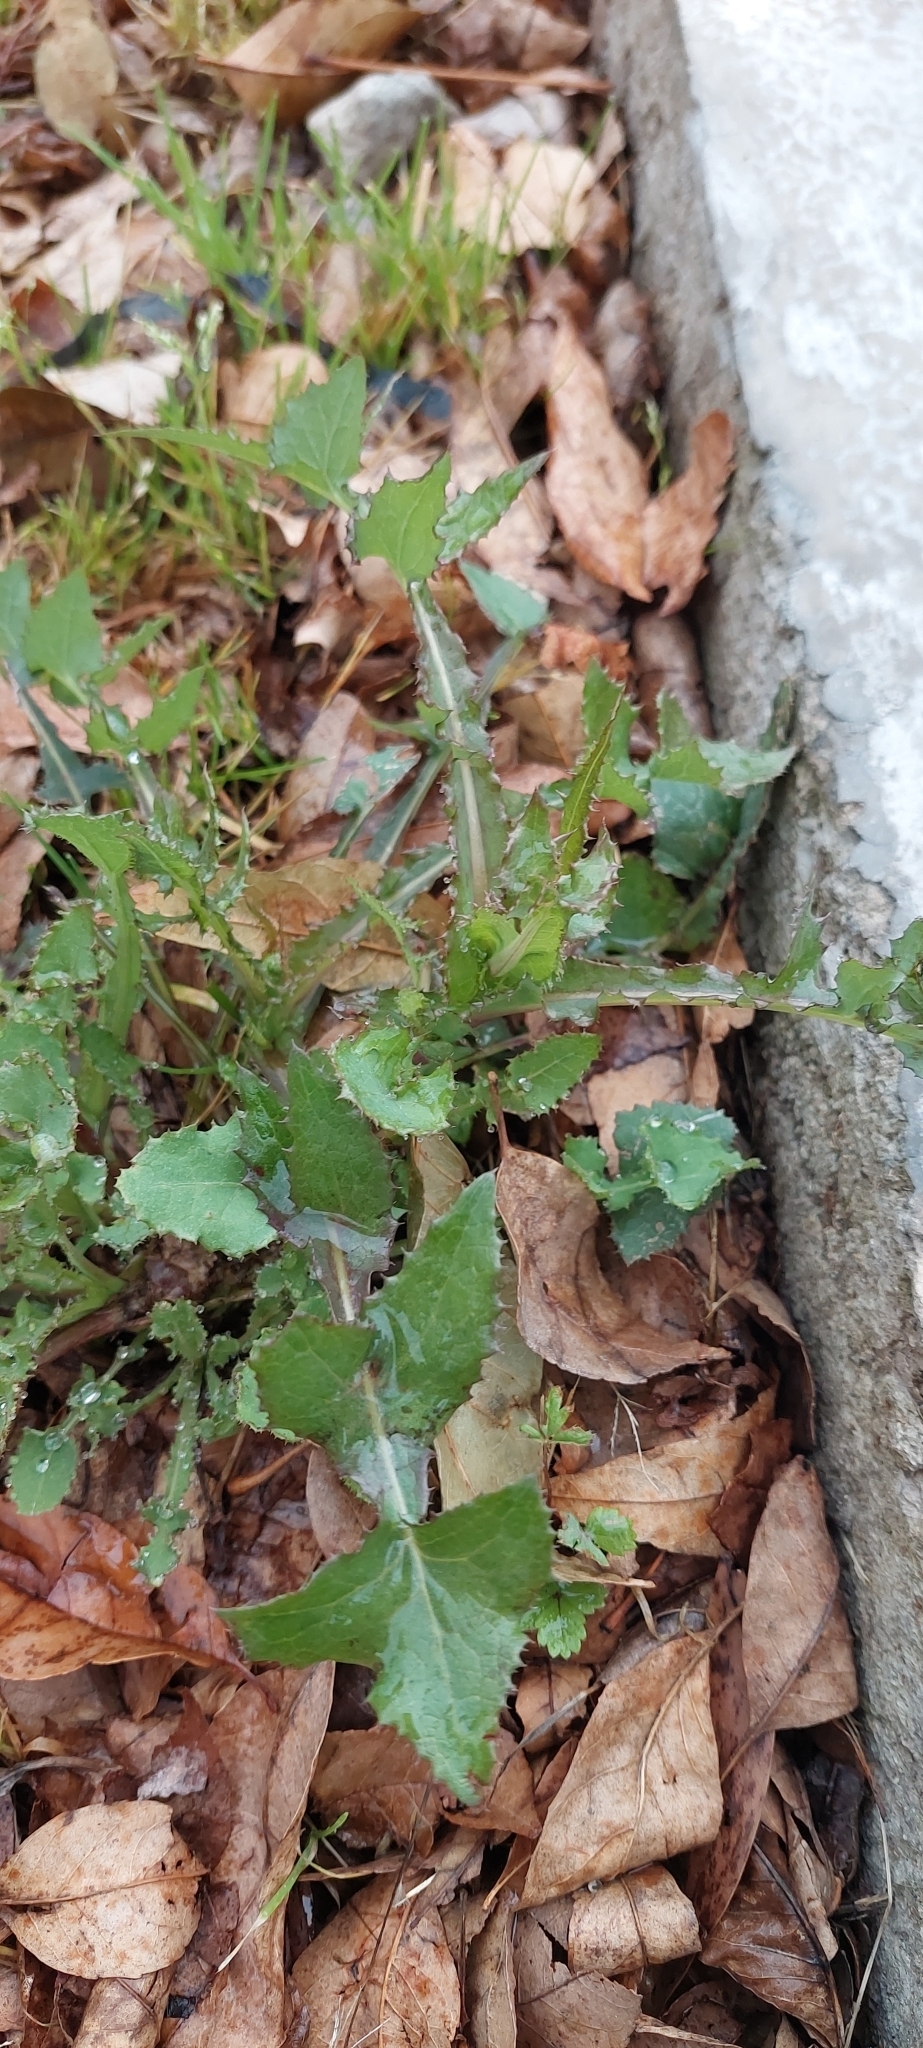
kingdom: Plantae
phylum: Tracheophyta
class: Magnoliopsida
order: Asterales
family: Asteraceae
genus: Sonchus
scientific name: Sonchus oleraceus
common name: Common sowthistle
